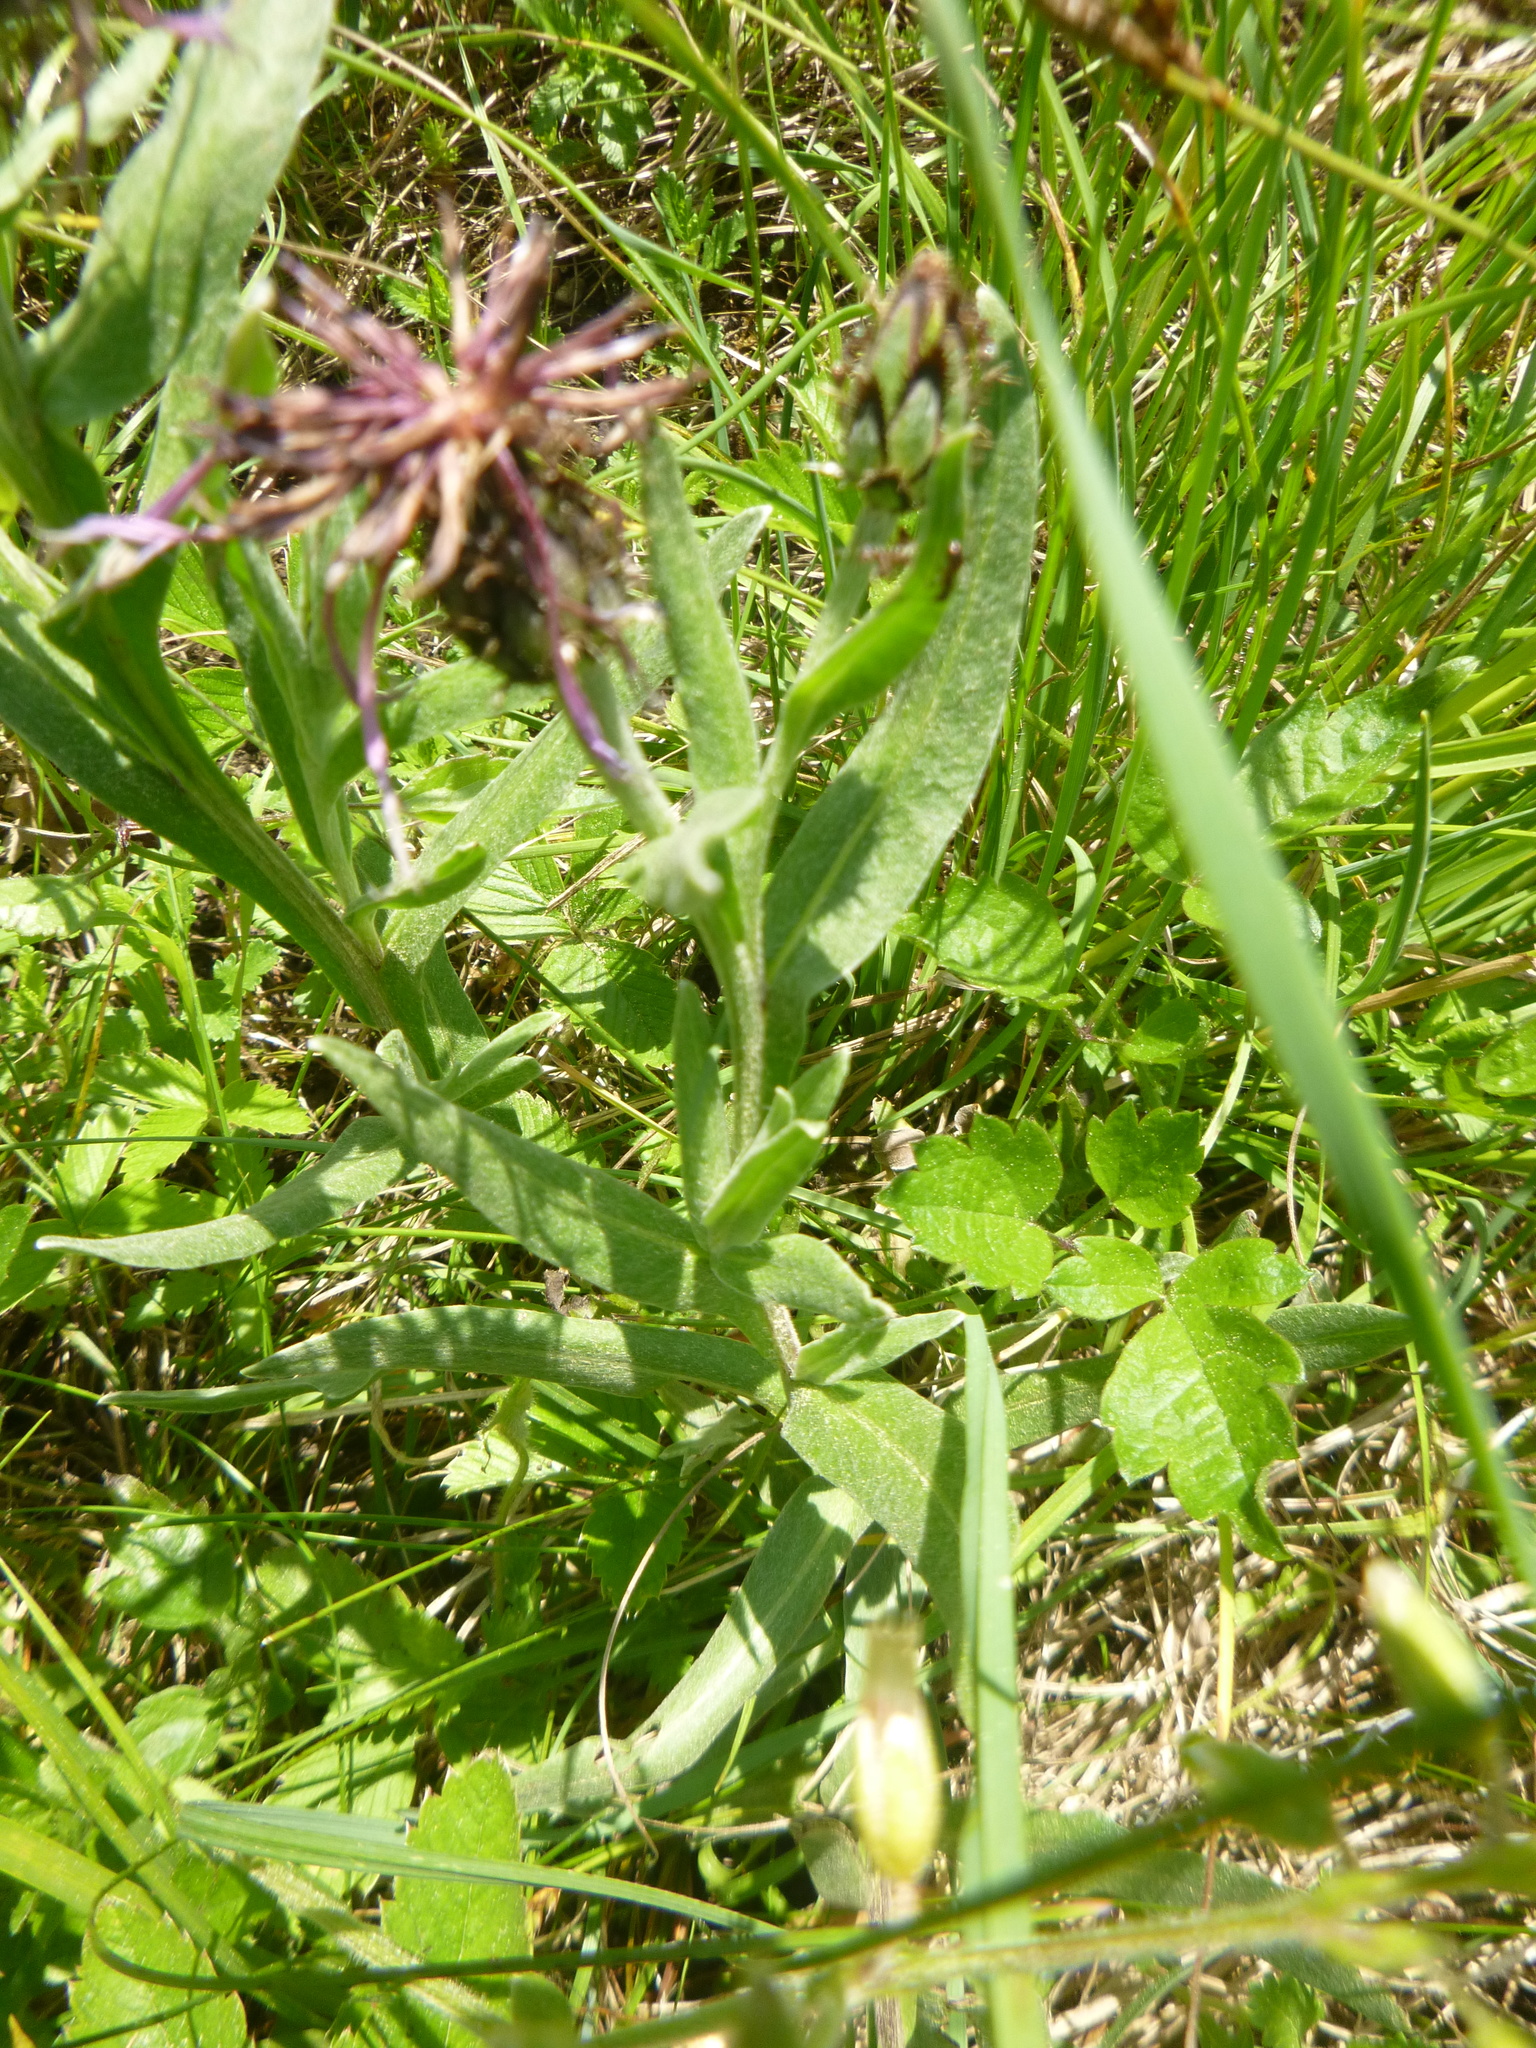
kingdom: Plantae
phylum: Tracheophyta
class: Magnoliopsida
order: Asterales
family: Asteraceae
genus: Centaurea
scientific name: Centaurea triumfettii
